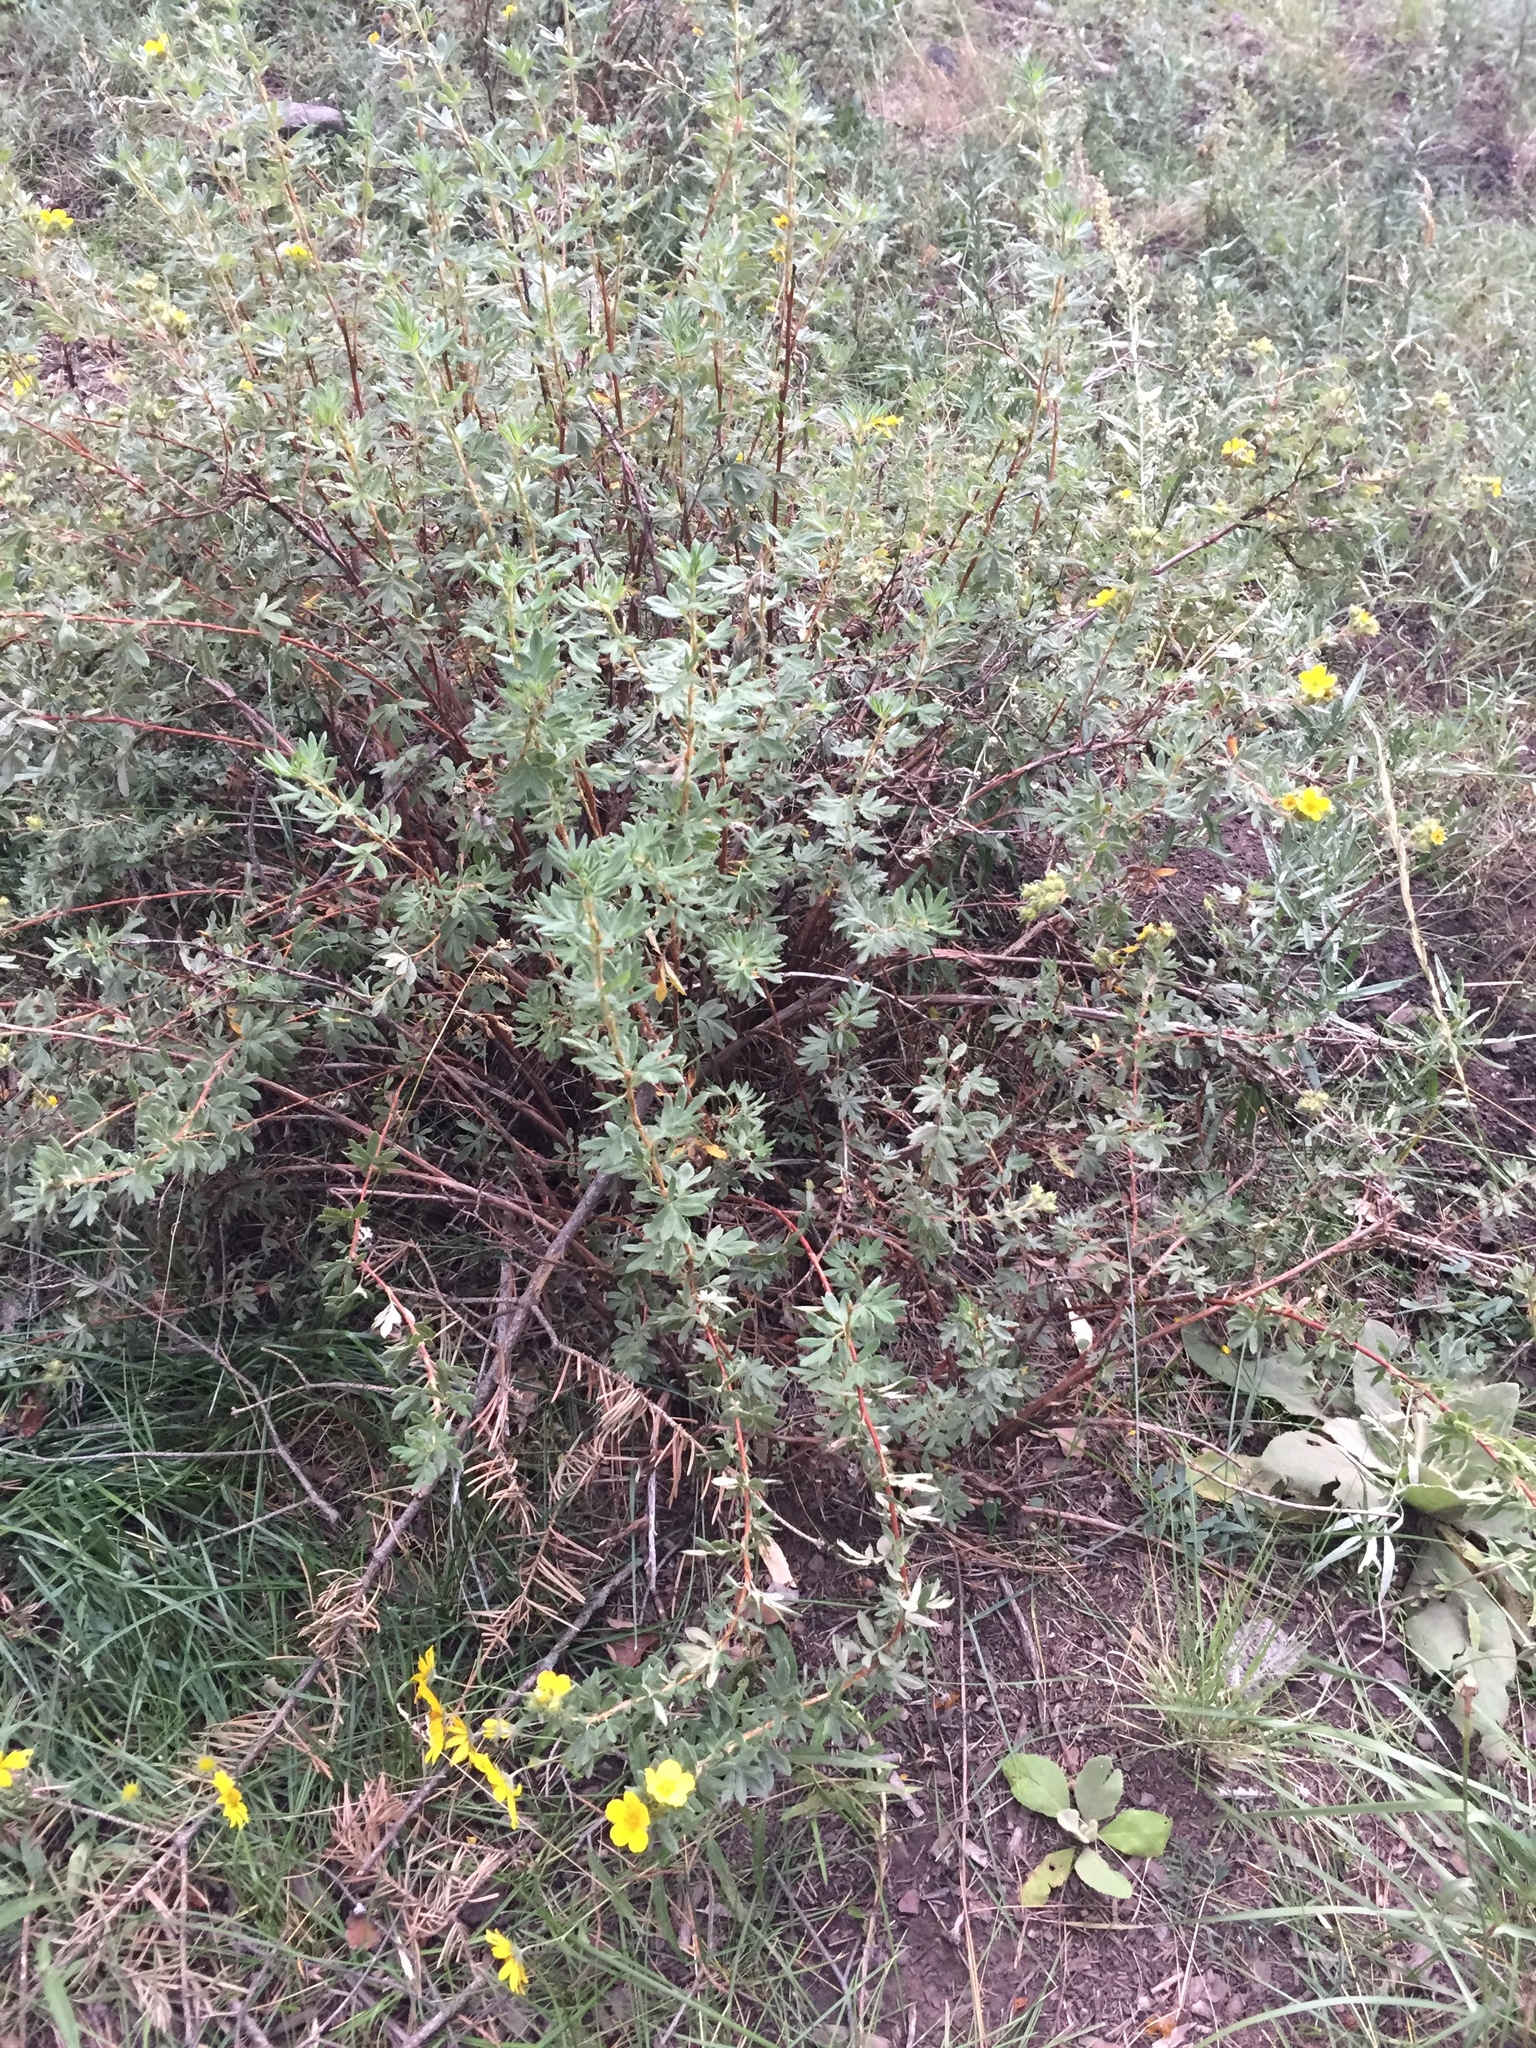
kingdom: Plantae
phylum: Tracheophyta
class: Magnoliopsida
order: Rosales
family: Rosaceae
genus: Dasiphora
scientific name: Dasiphora fruticosa
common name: Shrubby cinquefoil
